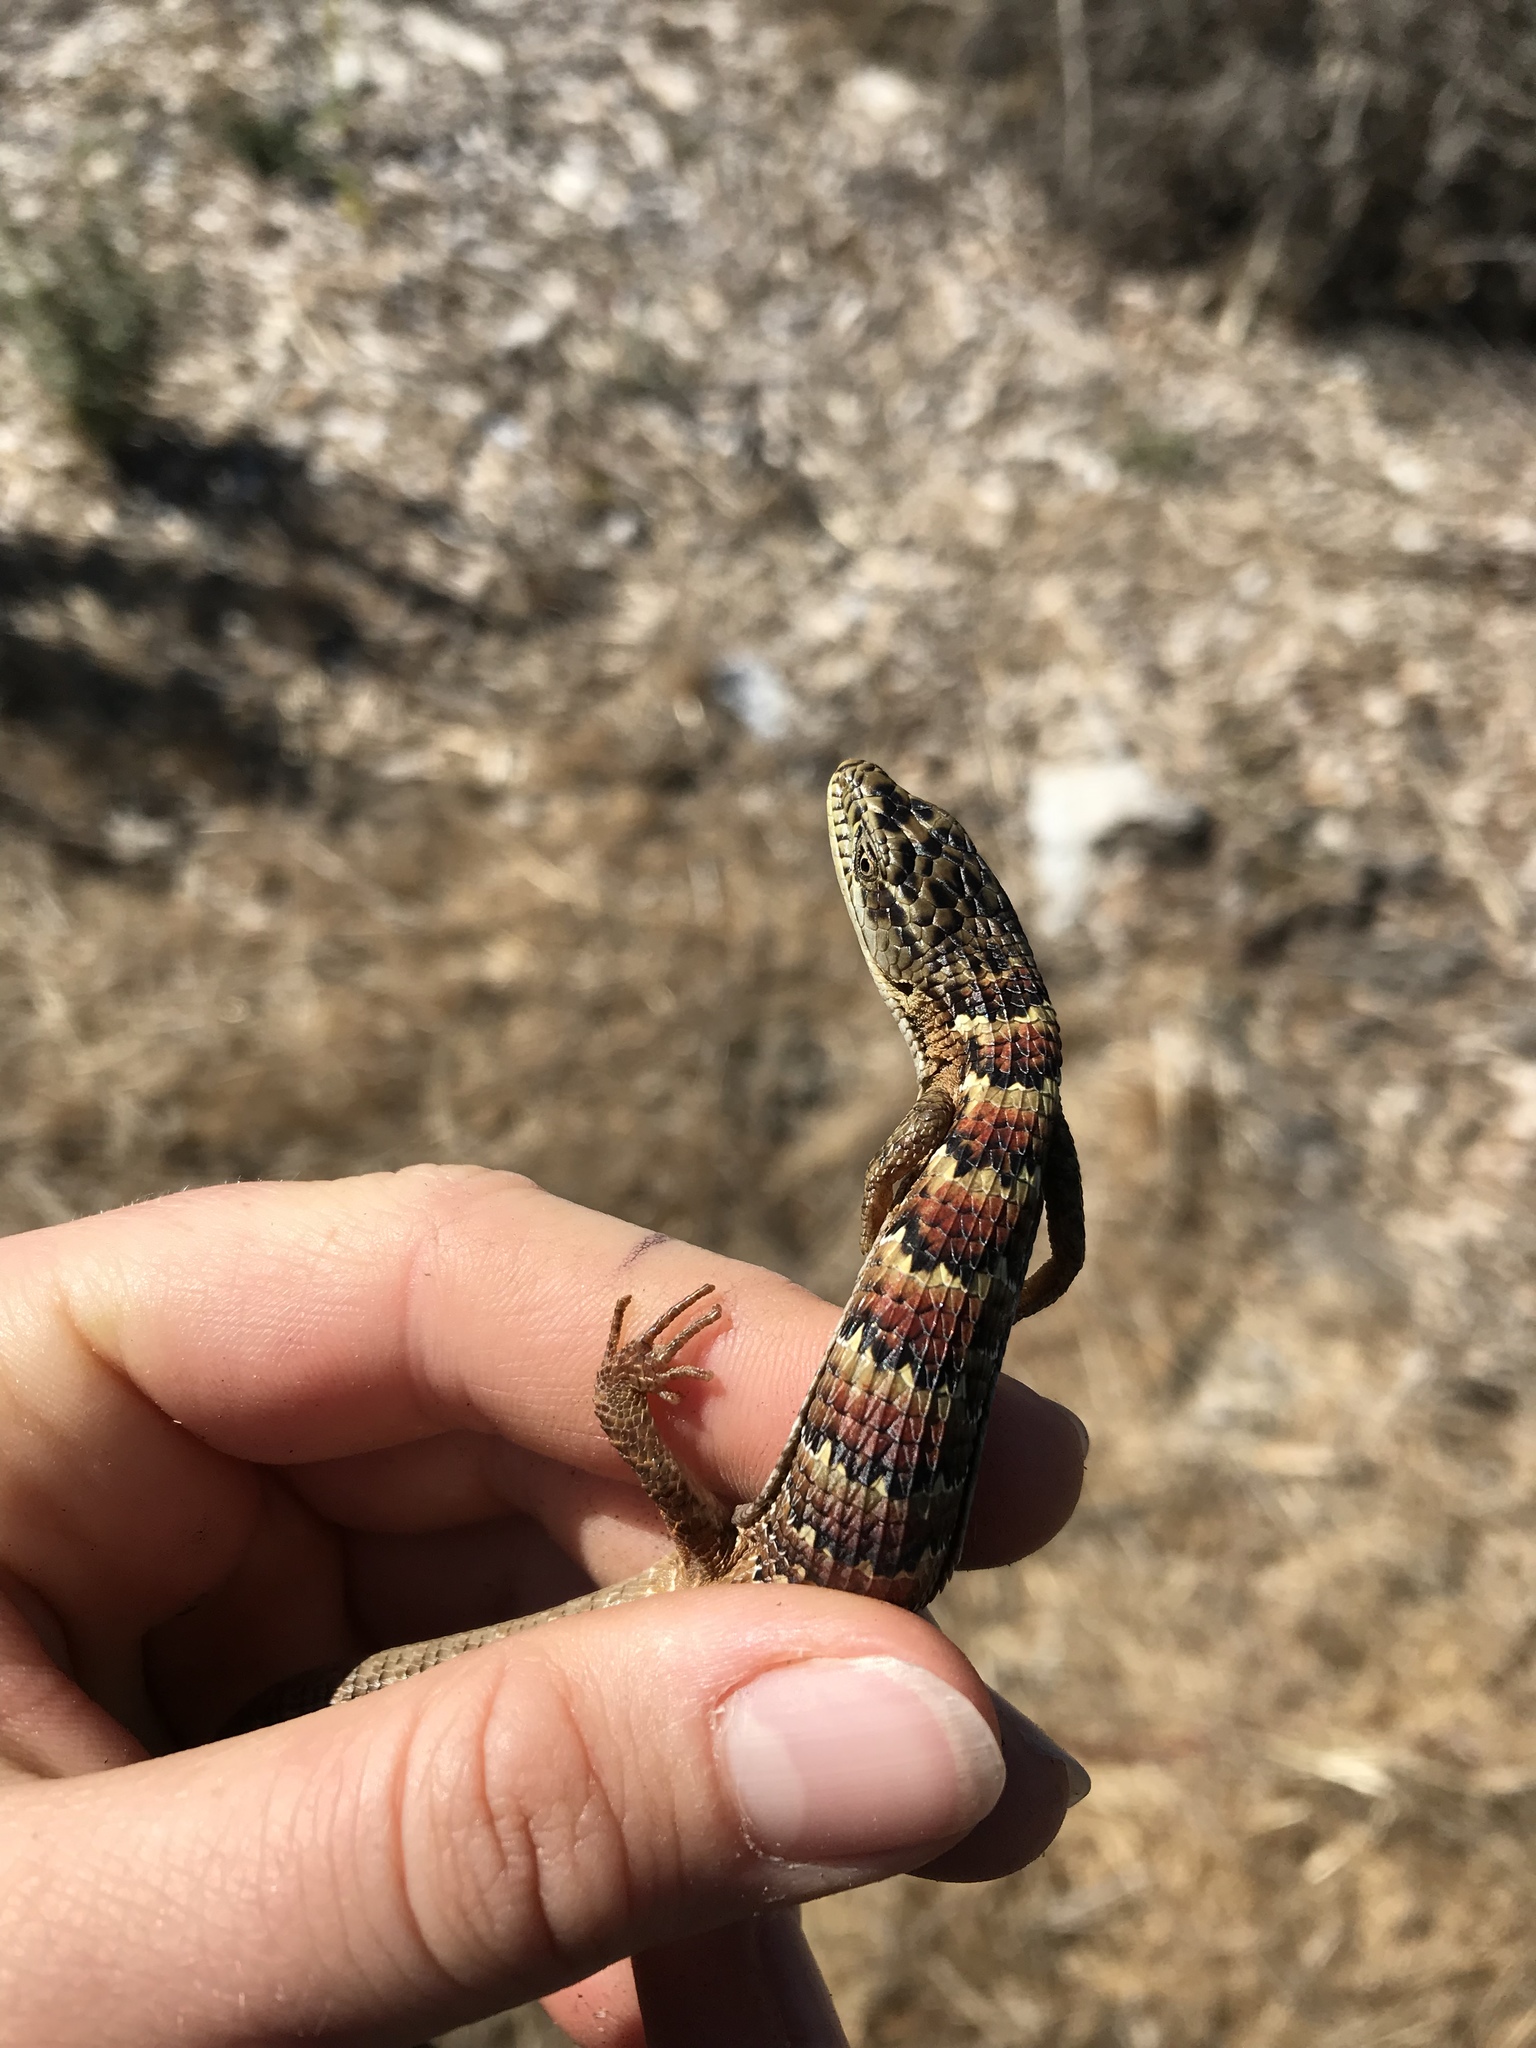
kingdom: Animalia
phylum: Chordata
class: Squamata
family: Anguidae
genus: Elgaria
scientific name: Elgaria multicarinata
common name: Southern alligator lizard
